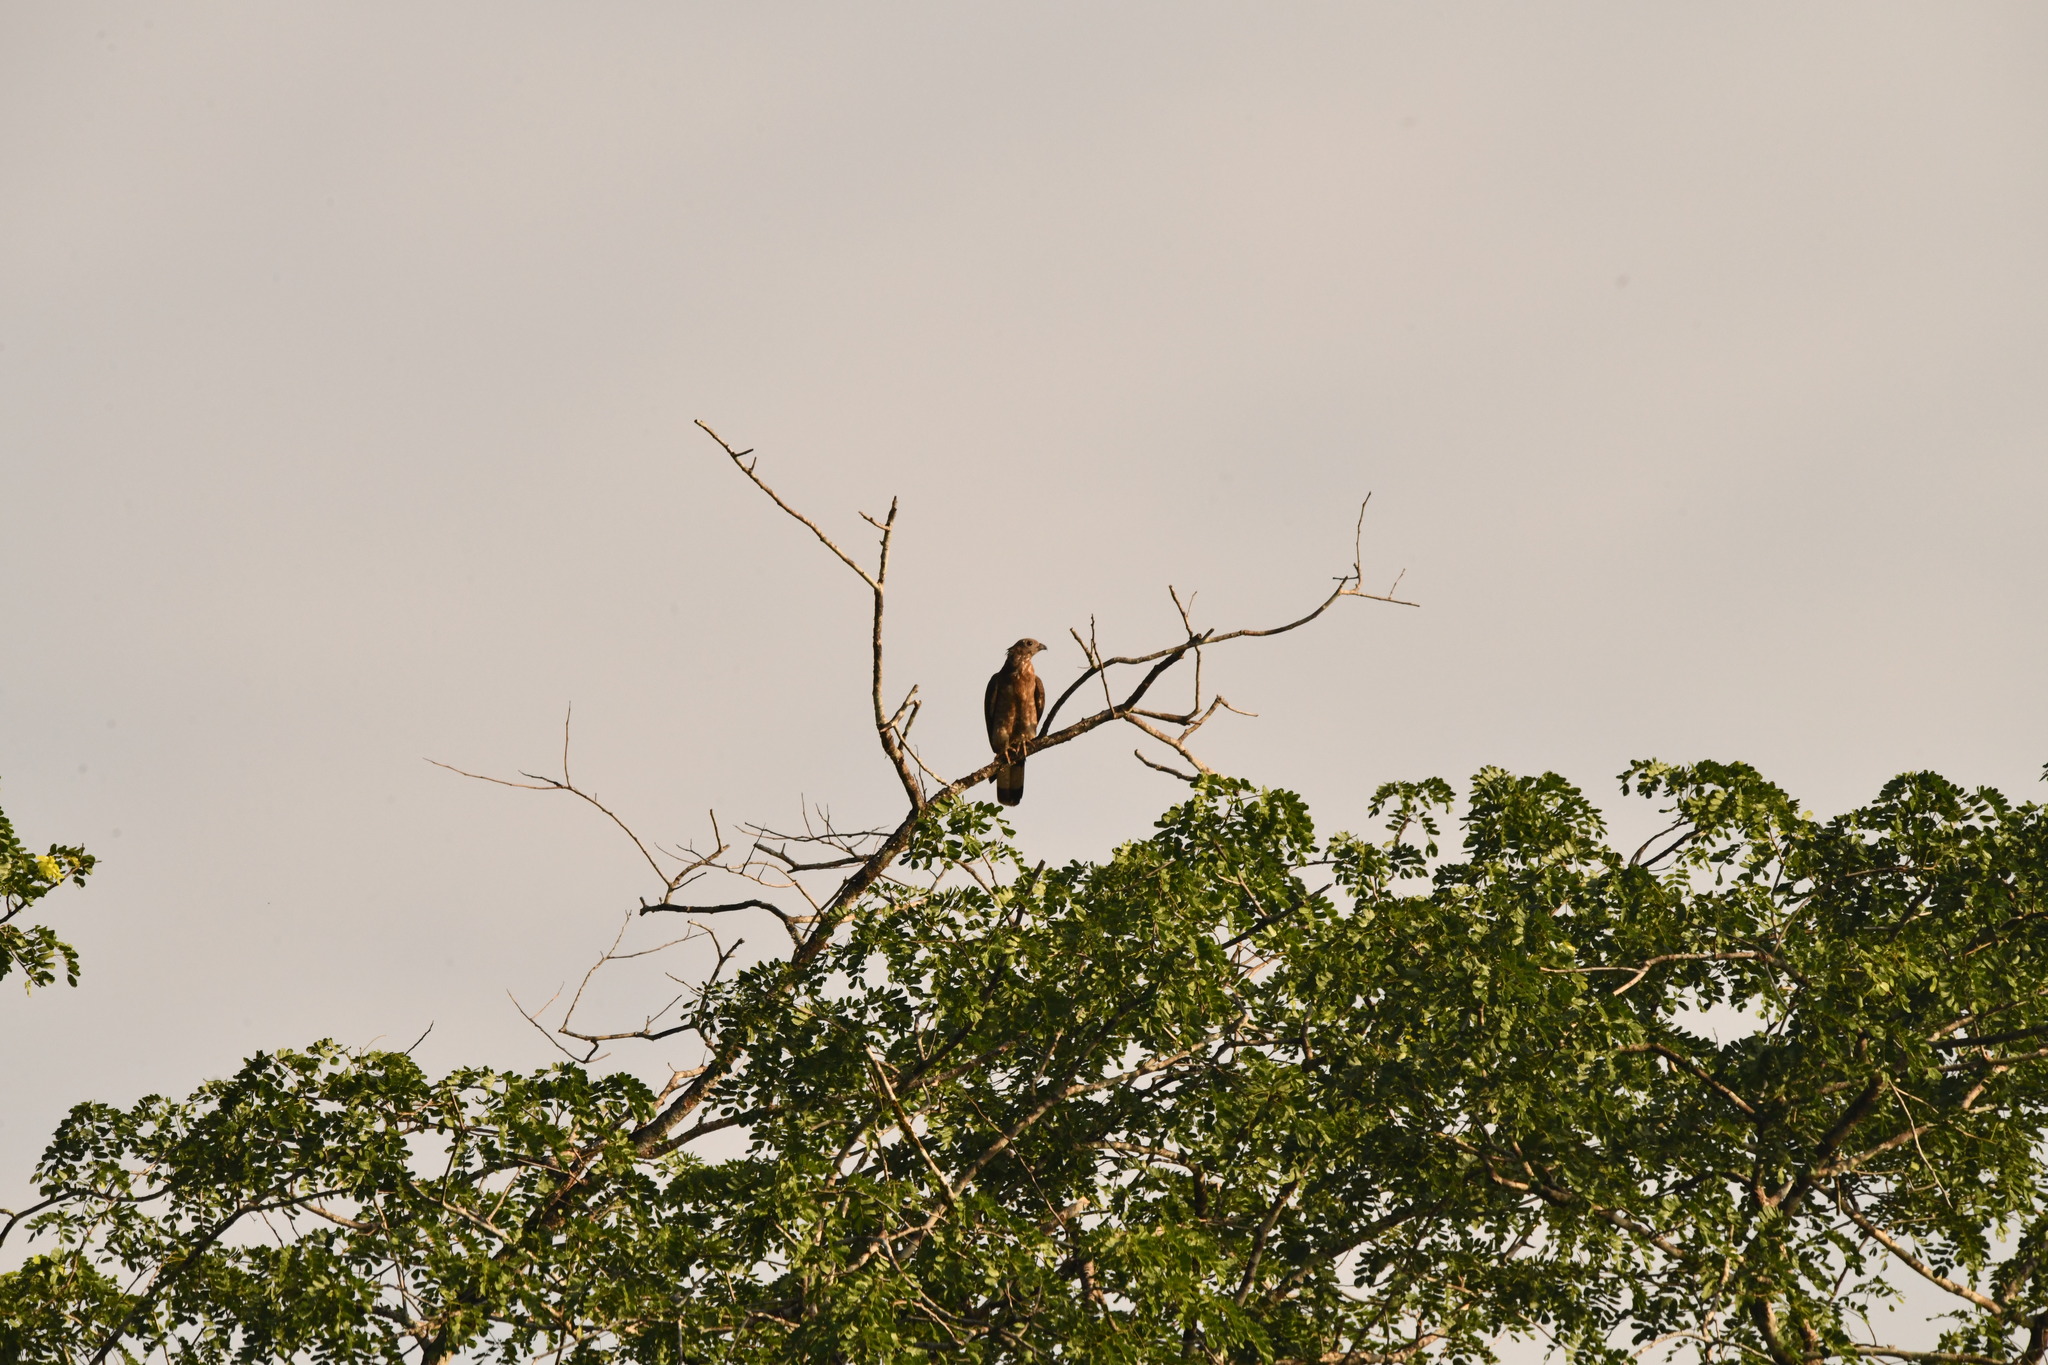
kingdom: Animalia
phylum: Chordata
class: Aves
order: Accipitriformes
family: Accipitridae
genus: Pernis
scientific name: Pernis ptilorhynchus
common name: Crested honey buzzard
